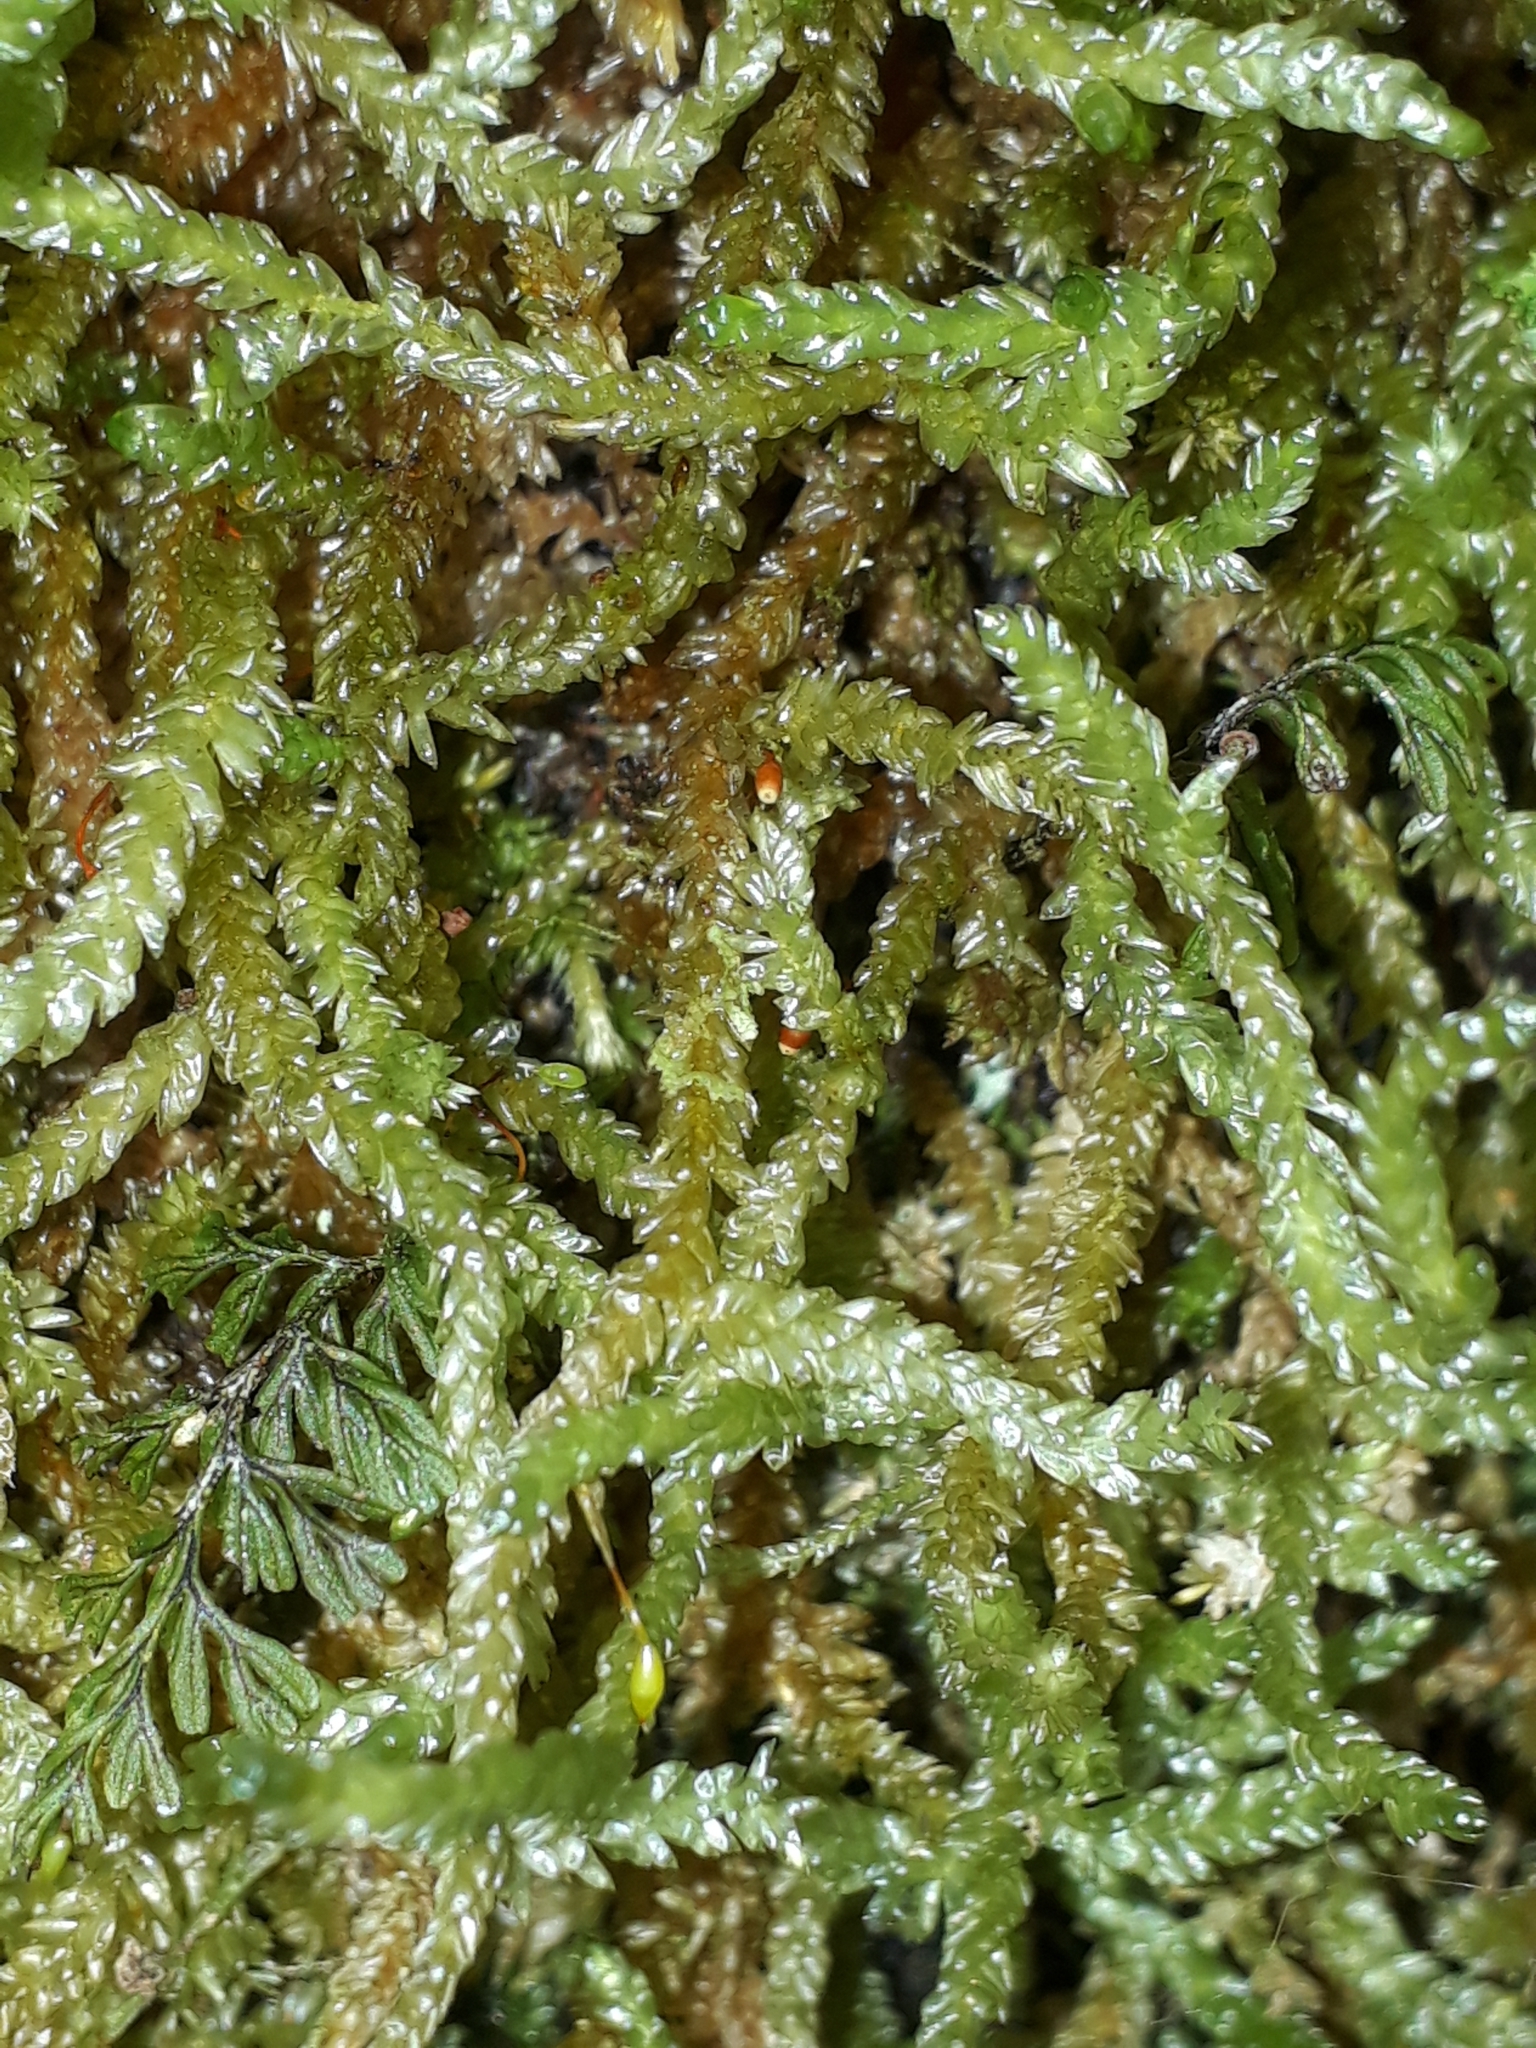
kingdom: Plantae
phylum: Bryophyta
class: Bryopsida
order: Hypnales
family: Lembophyllaceae
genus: Weymouthia
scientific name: Weymouthia cochlearifolia
